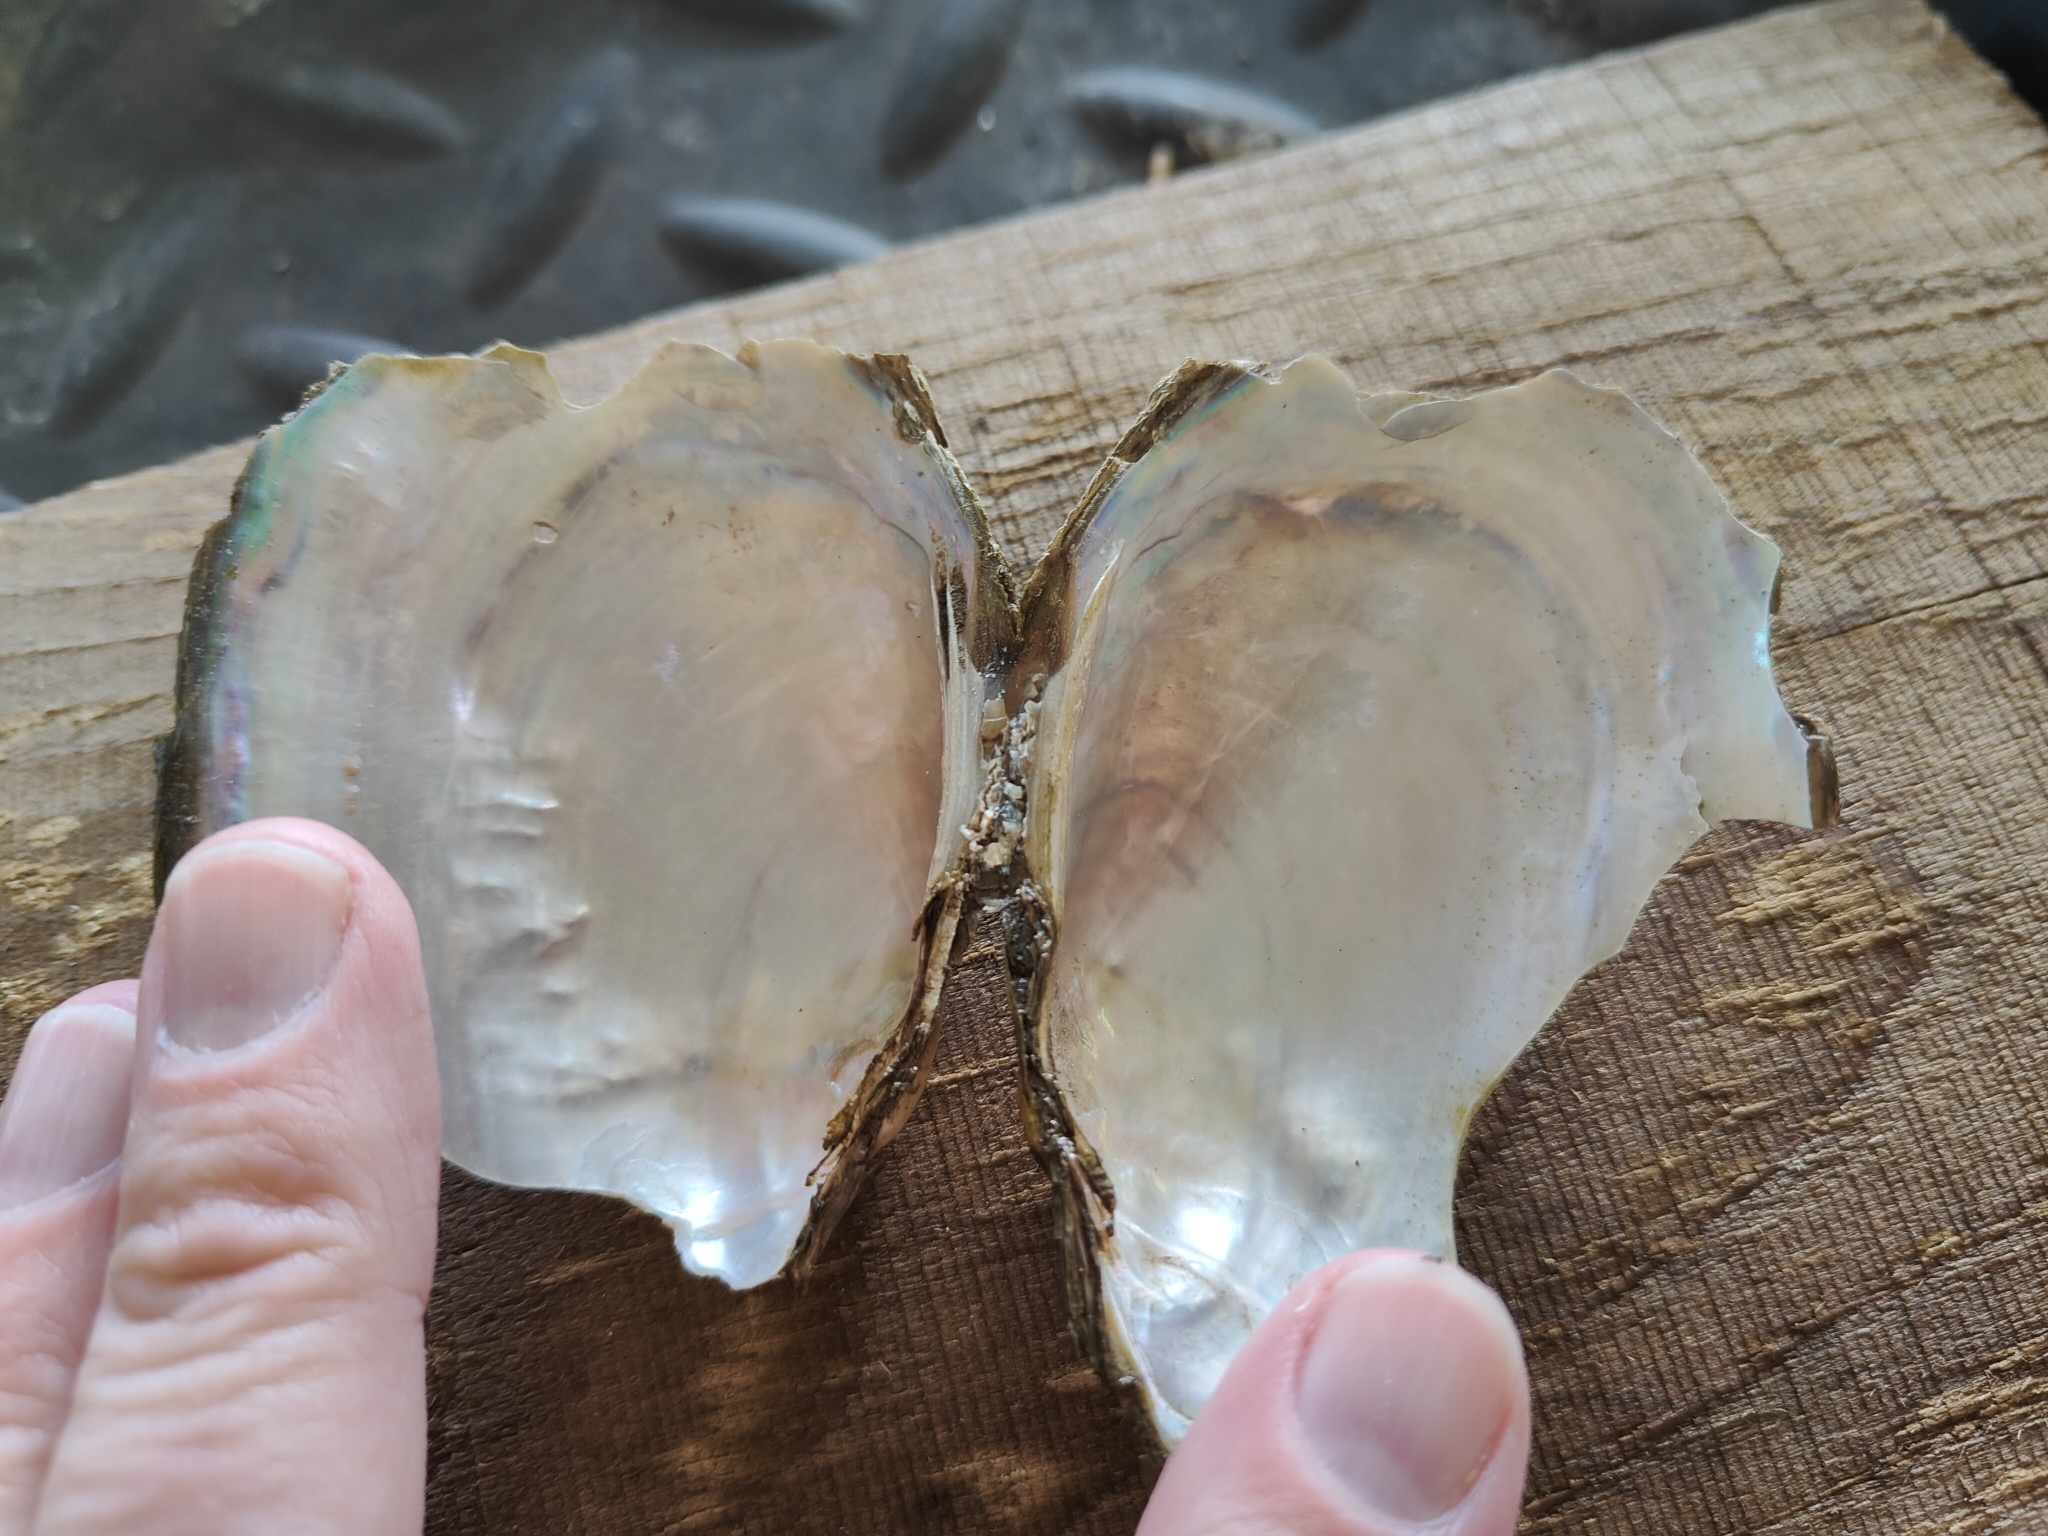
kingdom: Animalia
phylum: Mollusca
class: Bivalvia
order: Unionida
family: Unionidae
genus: Potamilus
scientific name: Potamilus fragilis
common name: Fragile papershell
